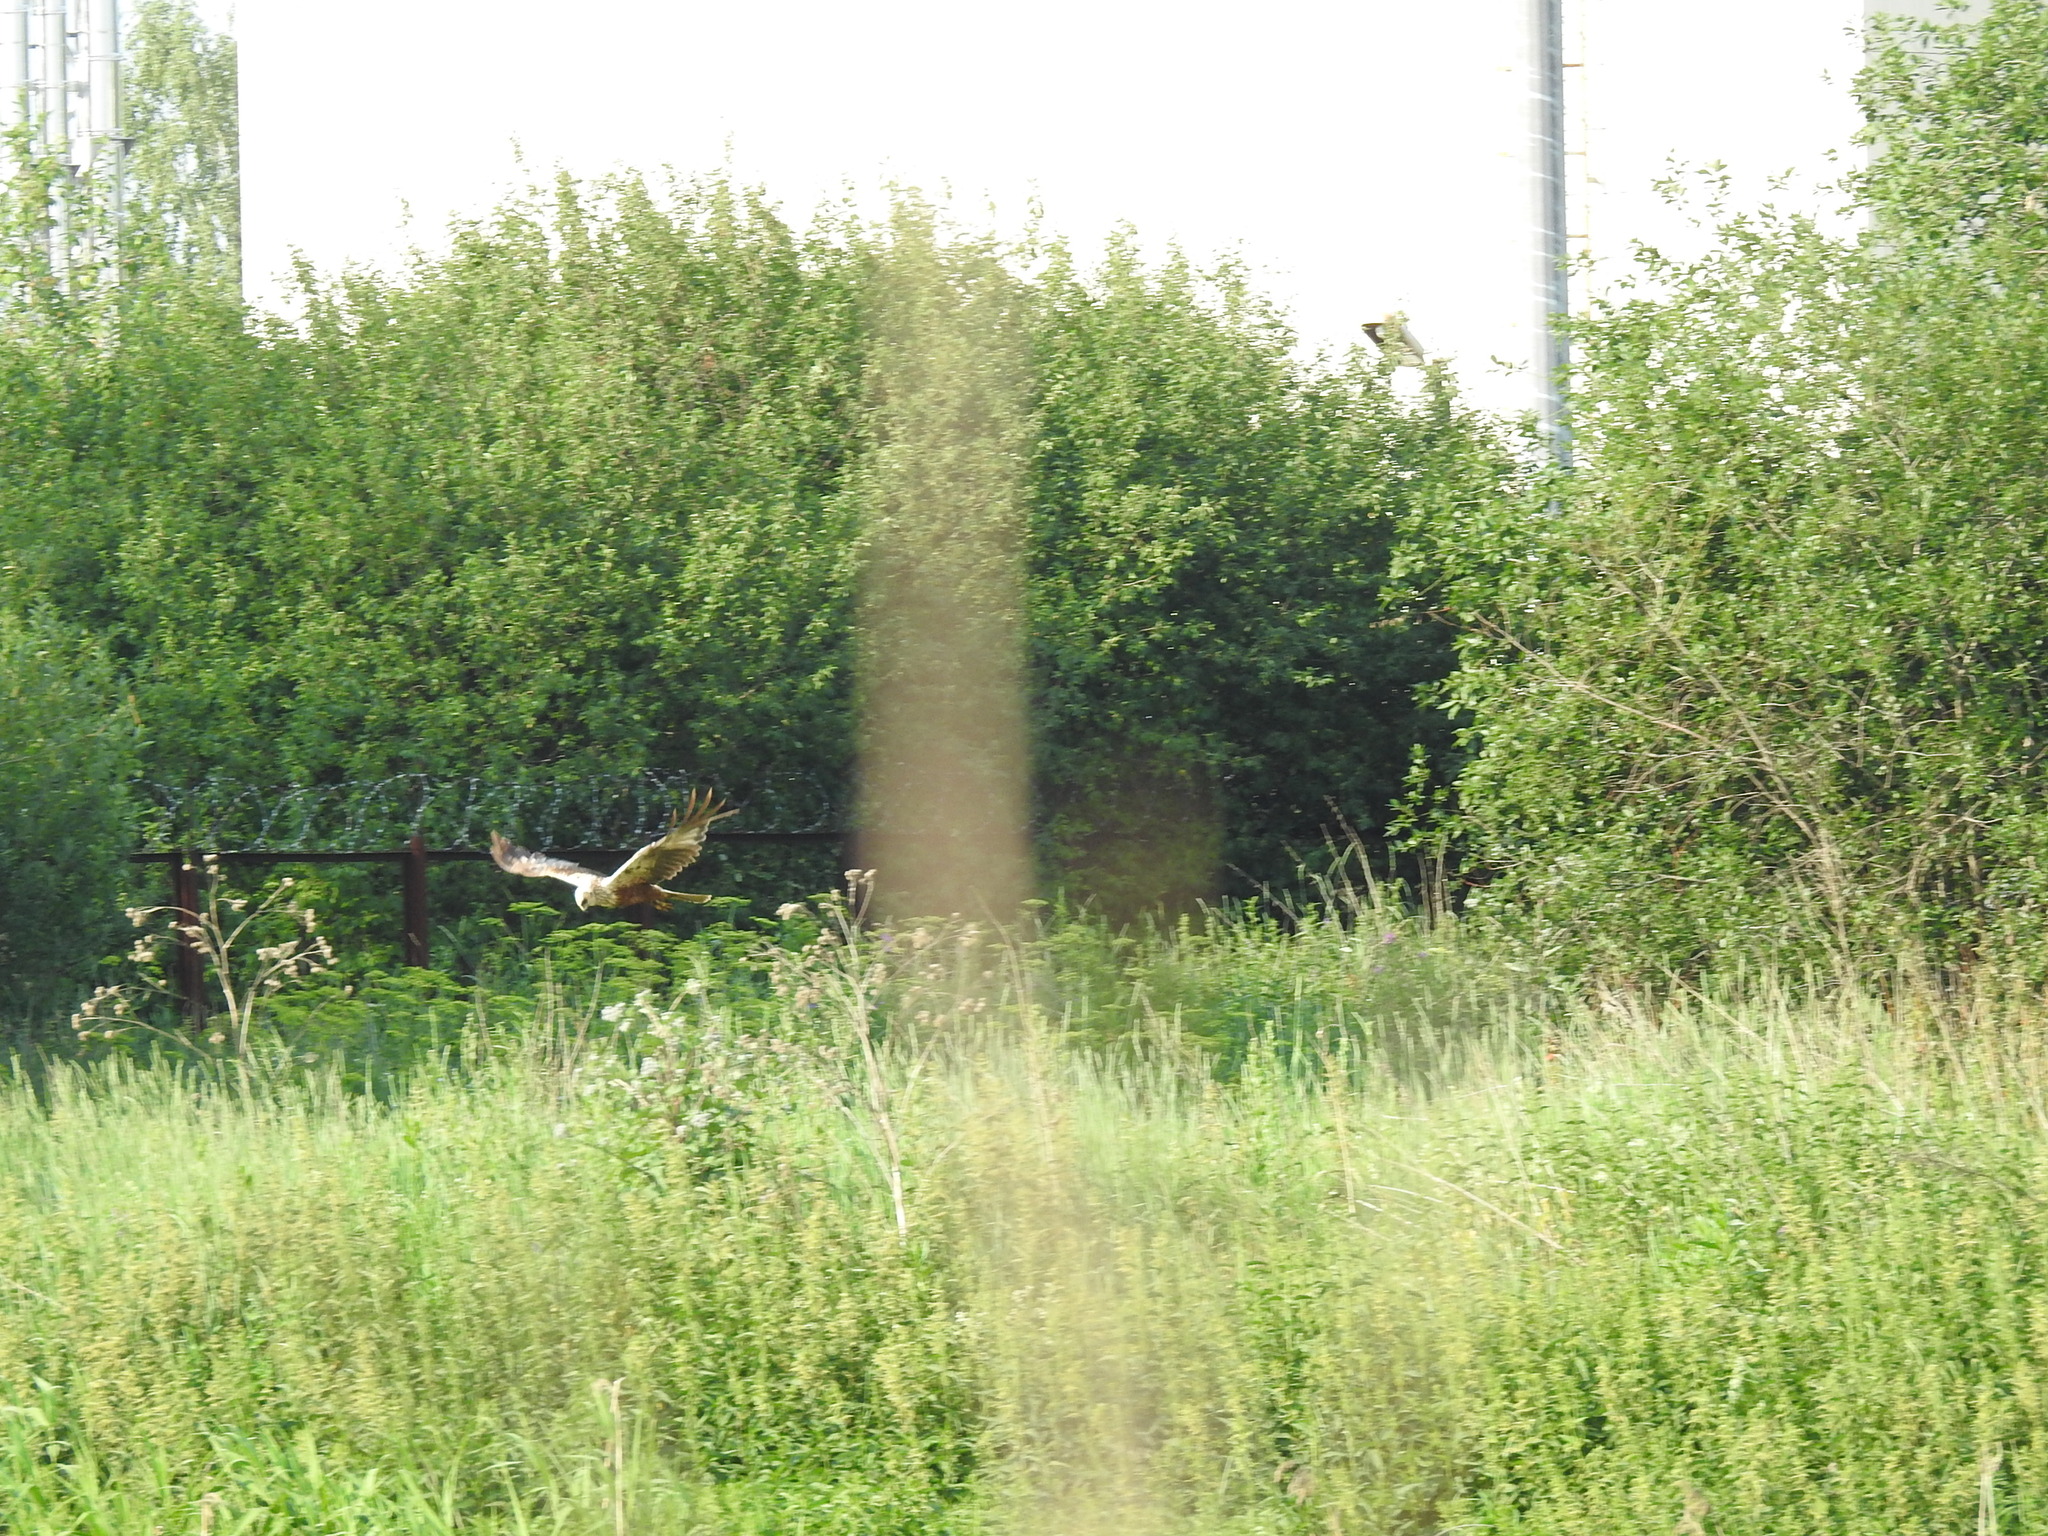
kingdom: Animalia
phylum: Chordata
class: Aves
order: Accipitriformes
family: Accipitridae
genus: Circus
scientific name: Circus aeruginosus
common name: Western marsh harrier
